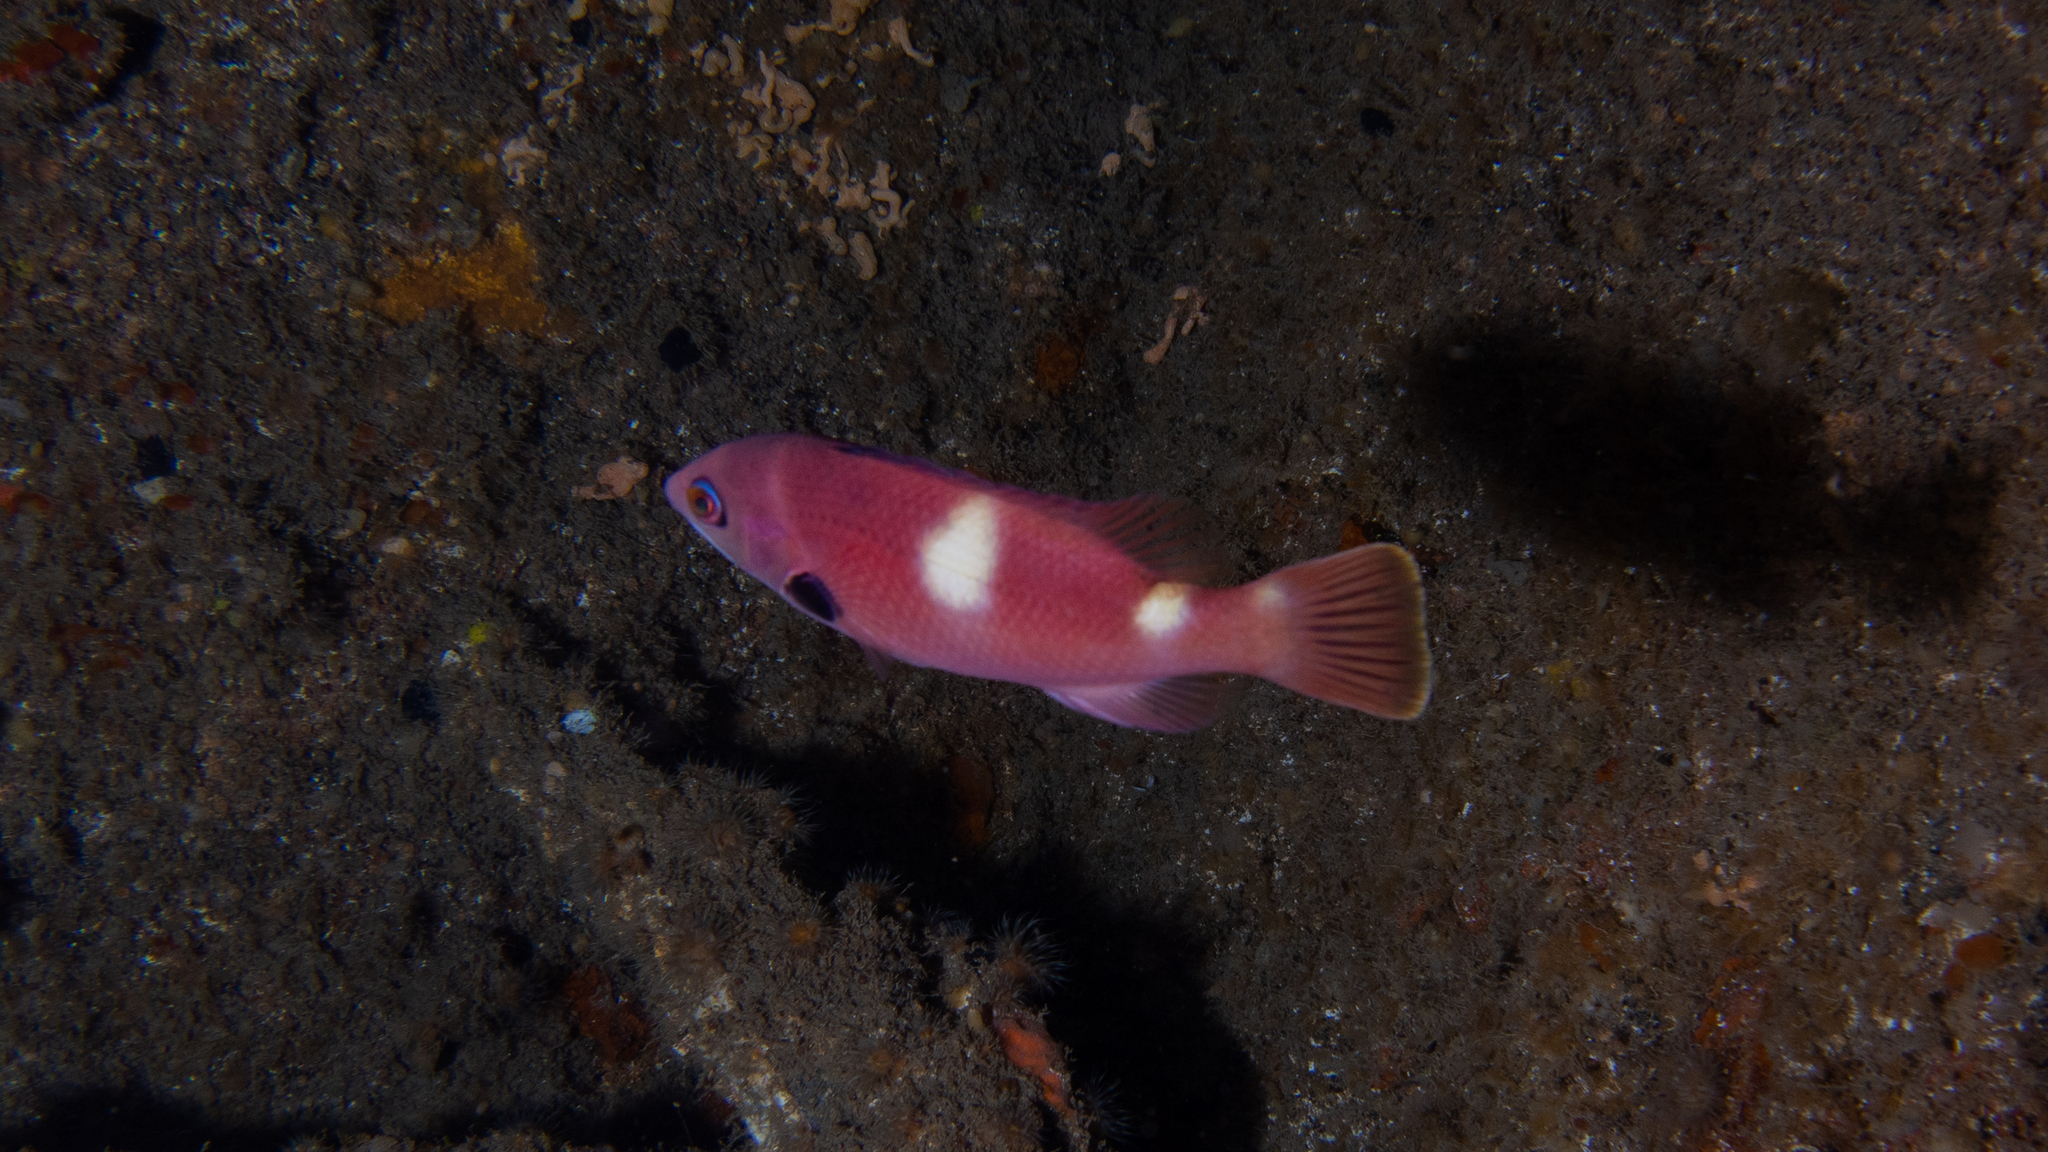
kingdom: Animalia
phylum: Chordata
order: Perciformes
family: Labridae
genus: Bodianus
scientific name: Bodianus frenchii
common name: Foxfish
